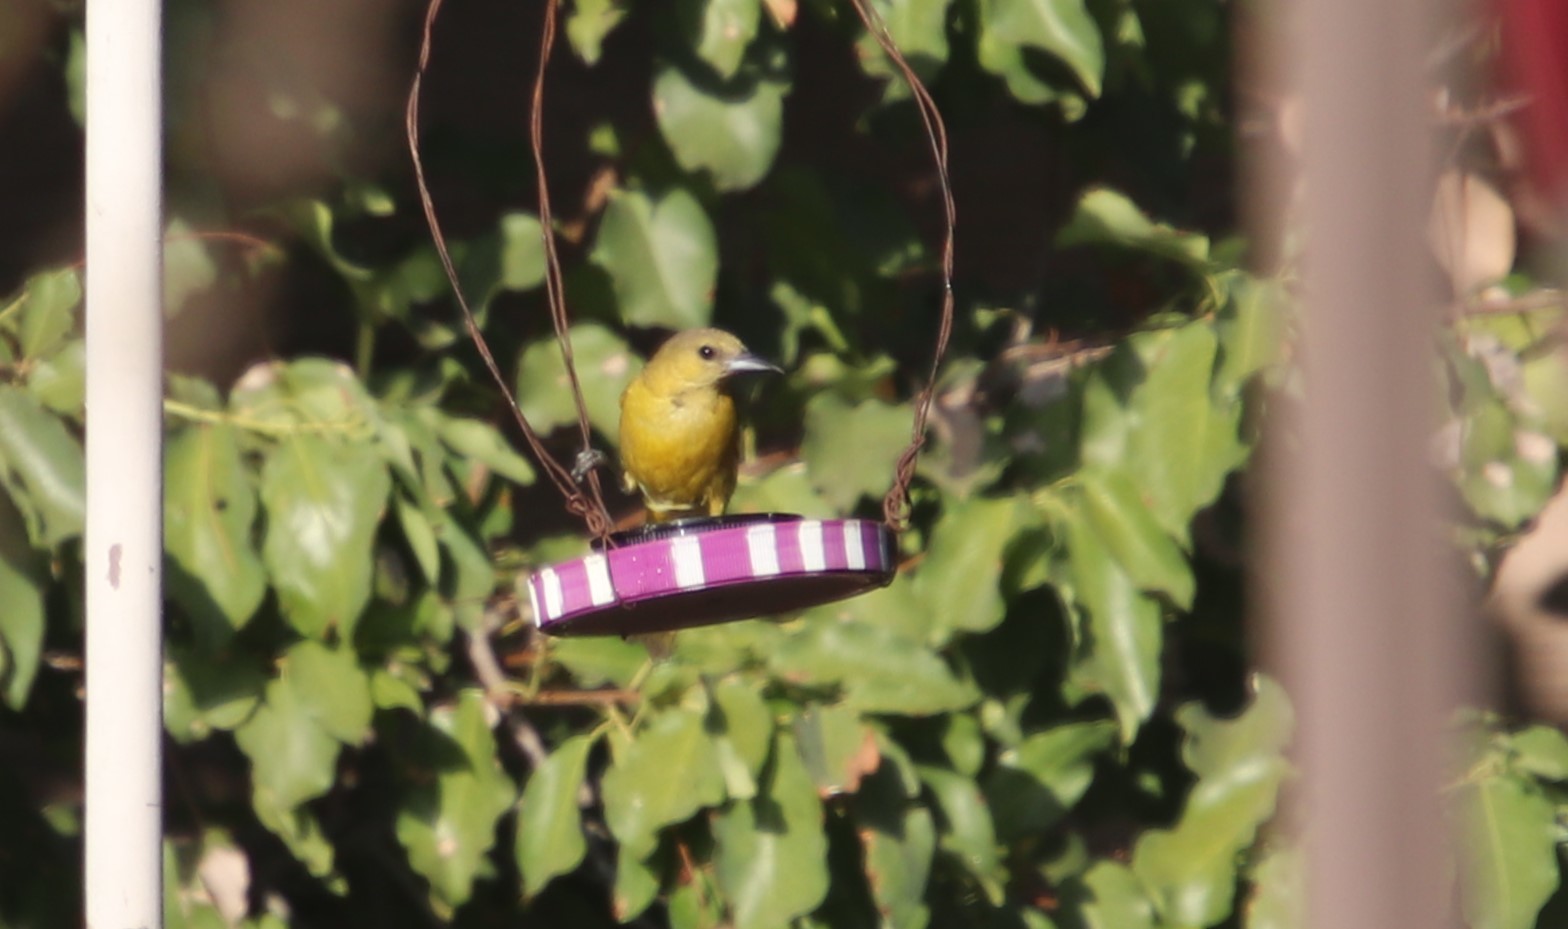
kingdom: Animalia
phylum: Chordata
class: Aves
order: Passeriformes
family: Icteridae
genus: Icterus
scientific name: Icterus cucullatus
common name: Hooded oriole
